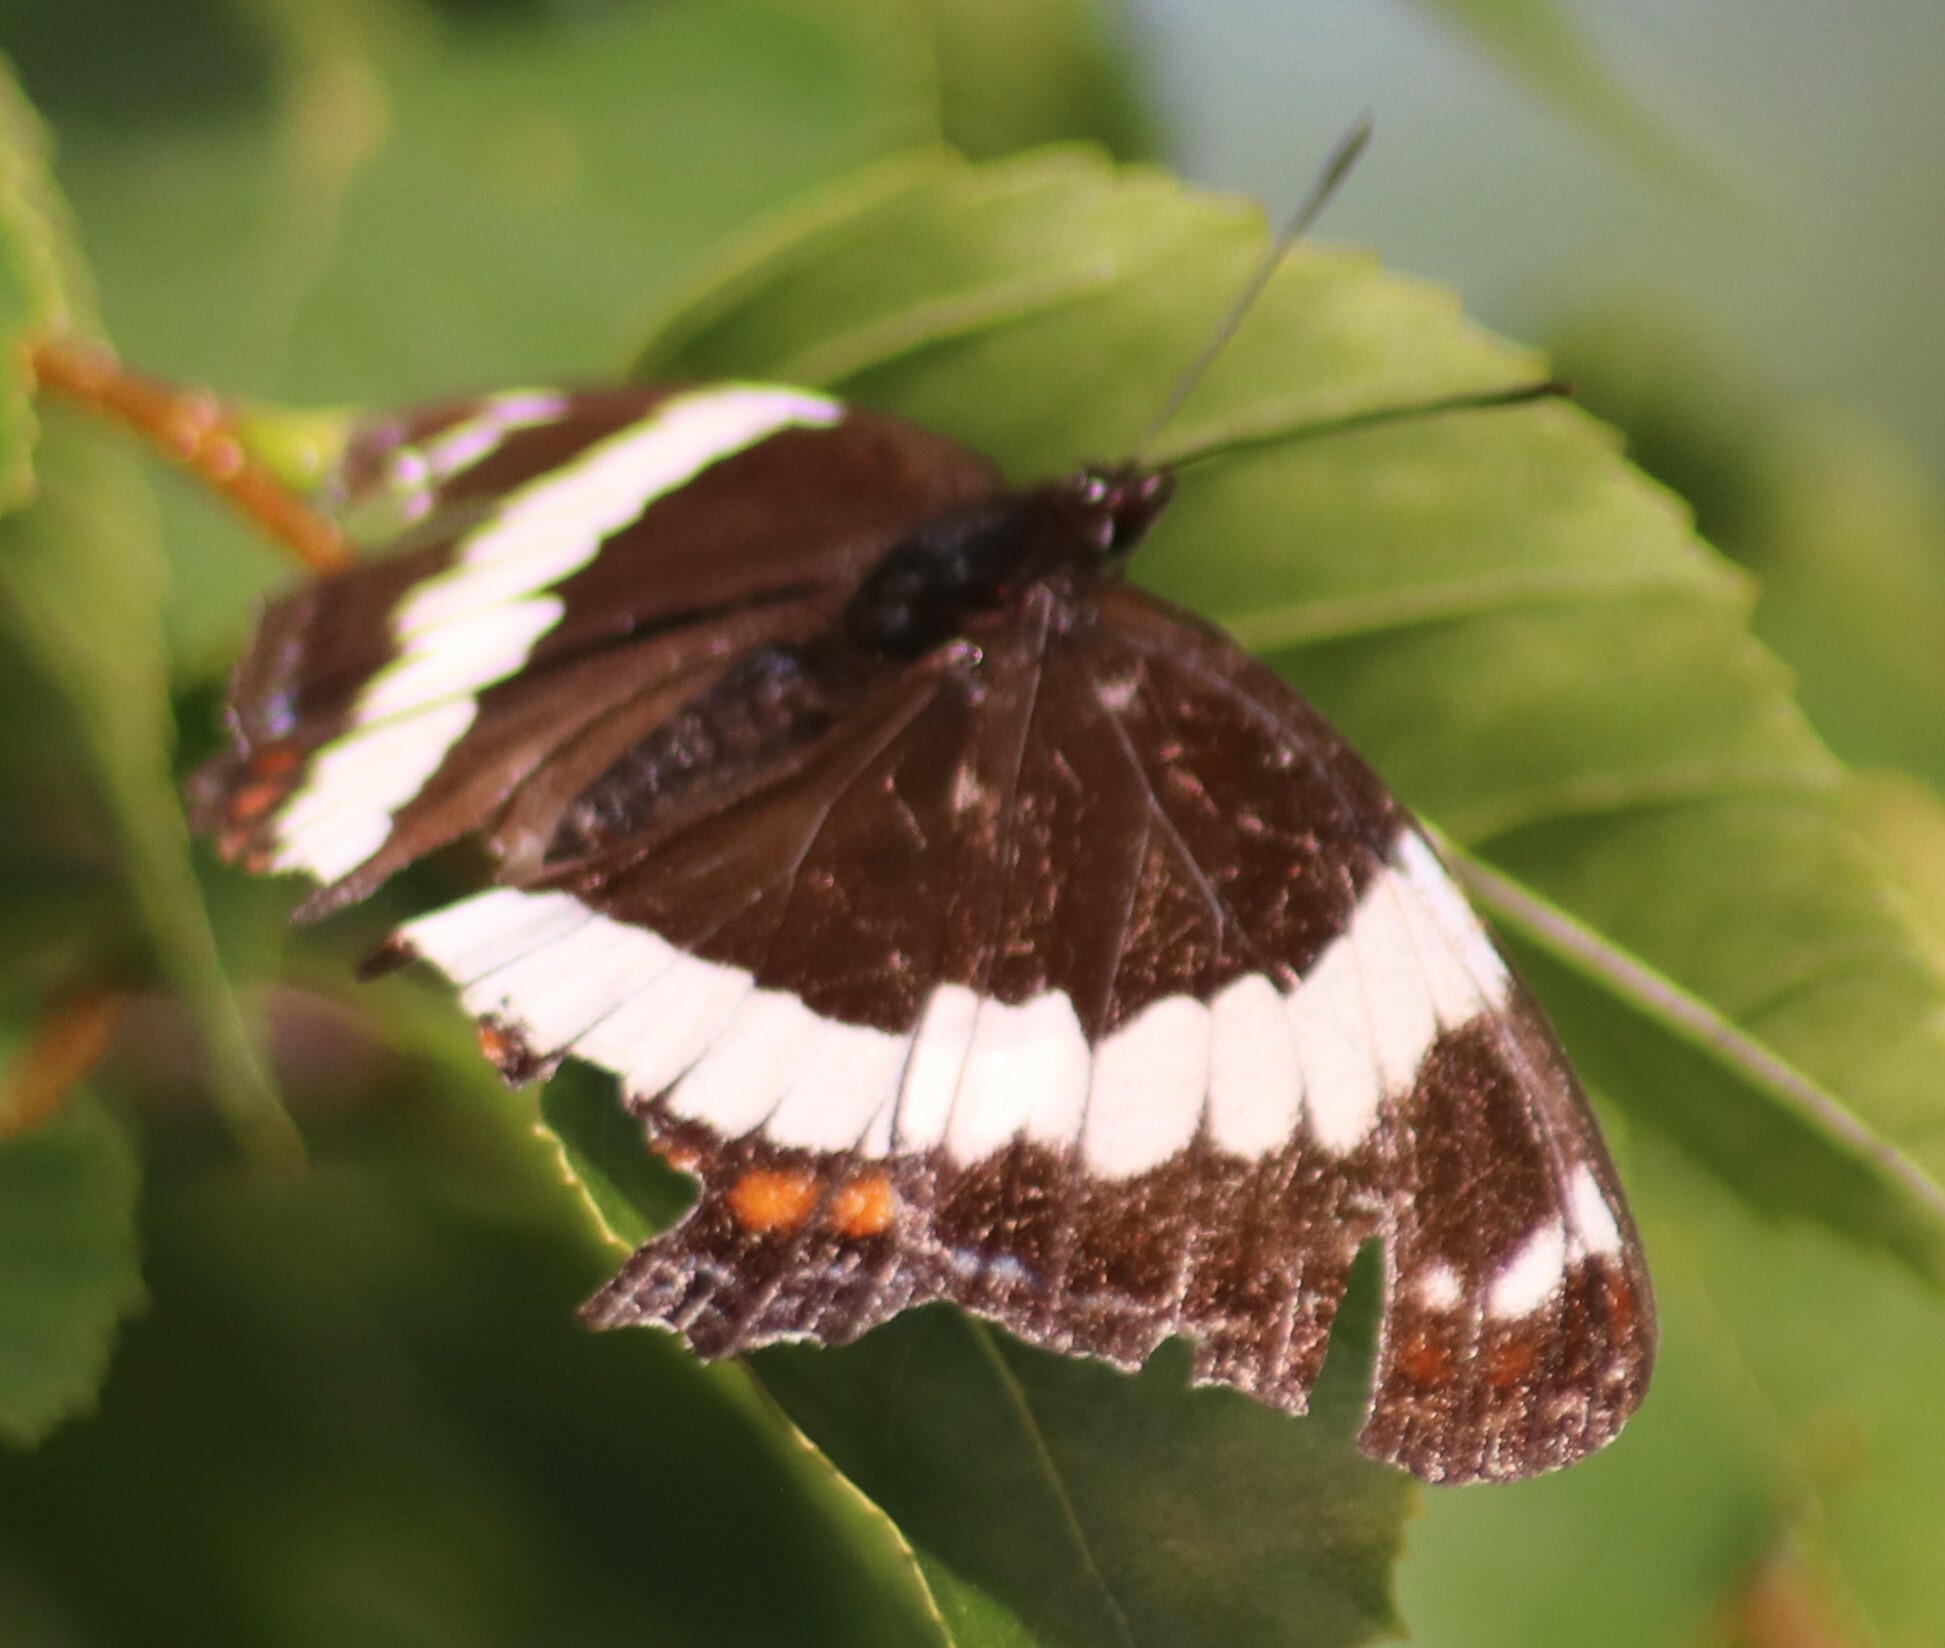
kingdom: Animalia
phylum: Arthropoda
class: Insecta
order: Lepidoptera
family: Nymphalidae
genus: Limenitis
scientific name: Limenitis arthemis
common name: Red-spotted admiral
